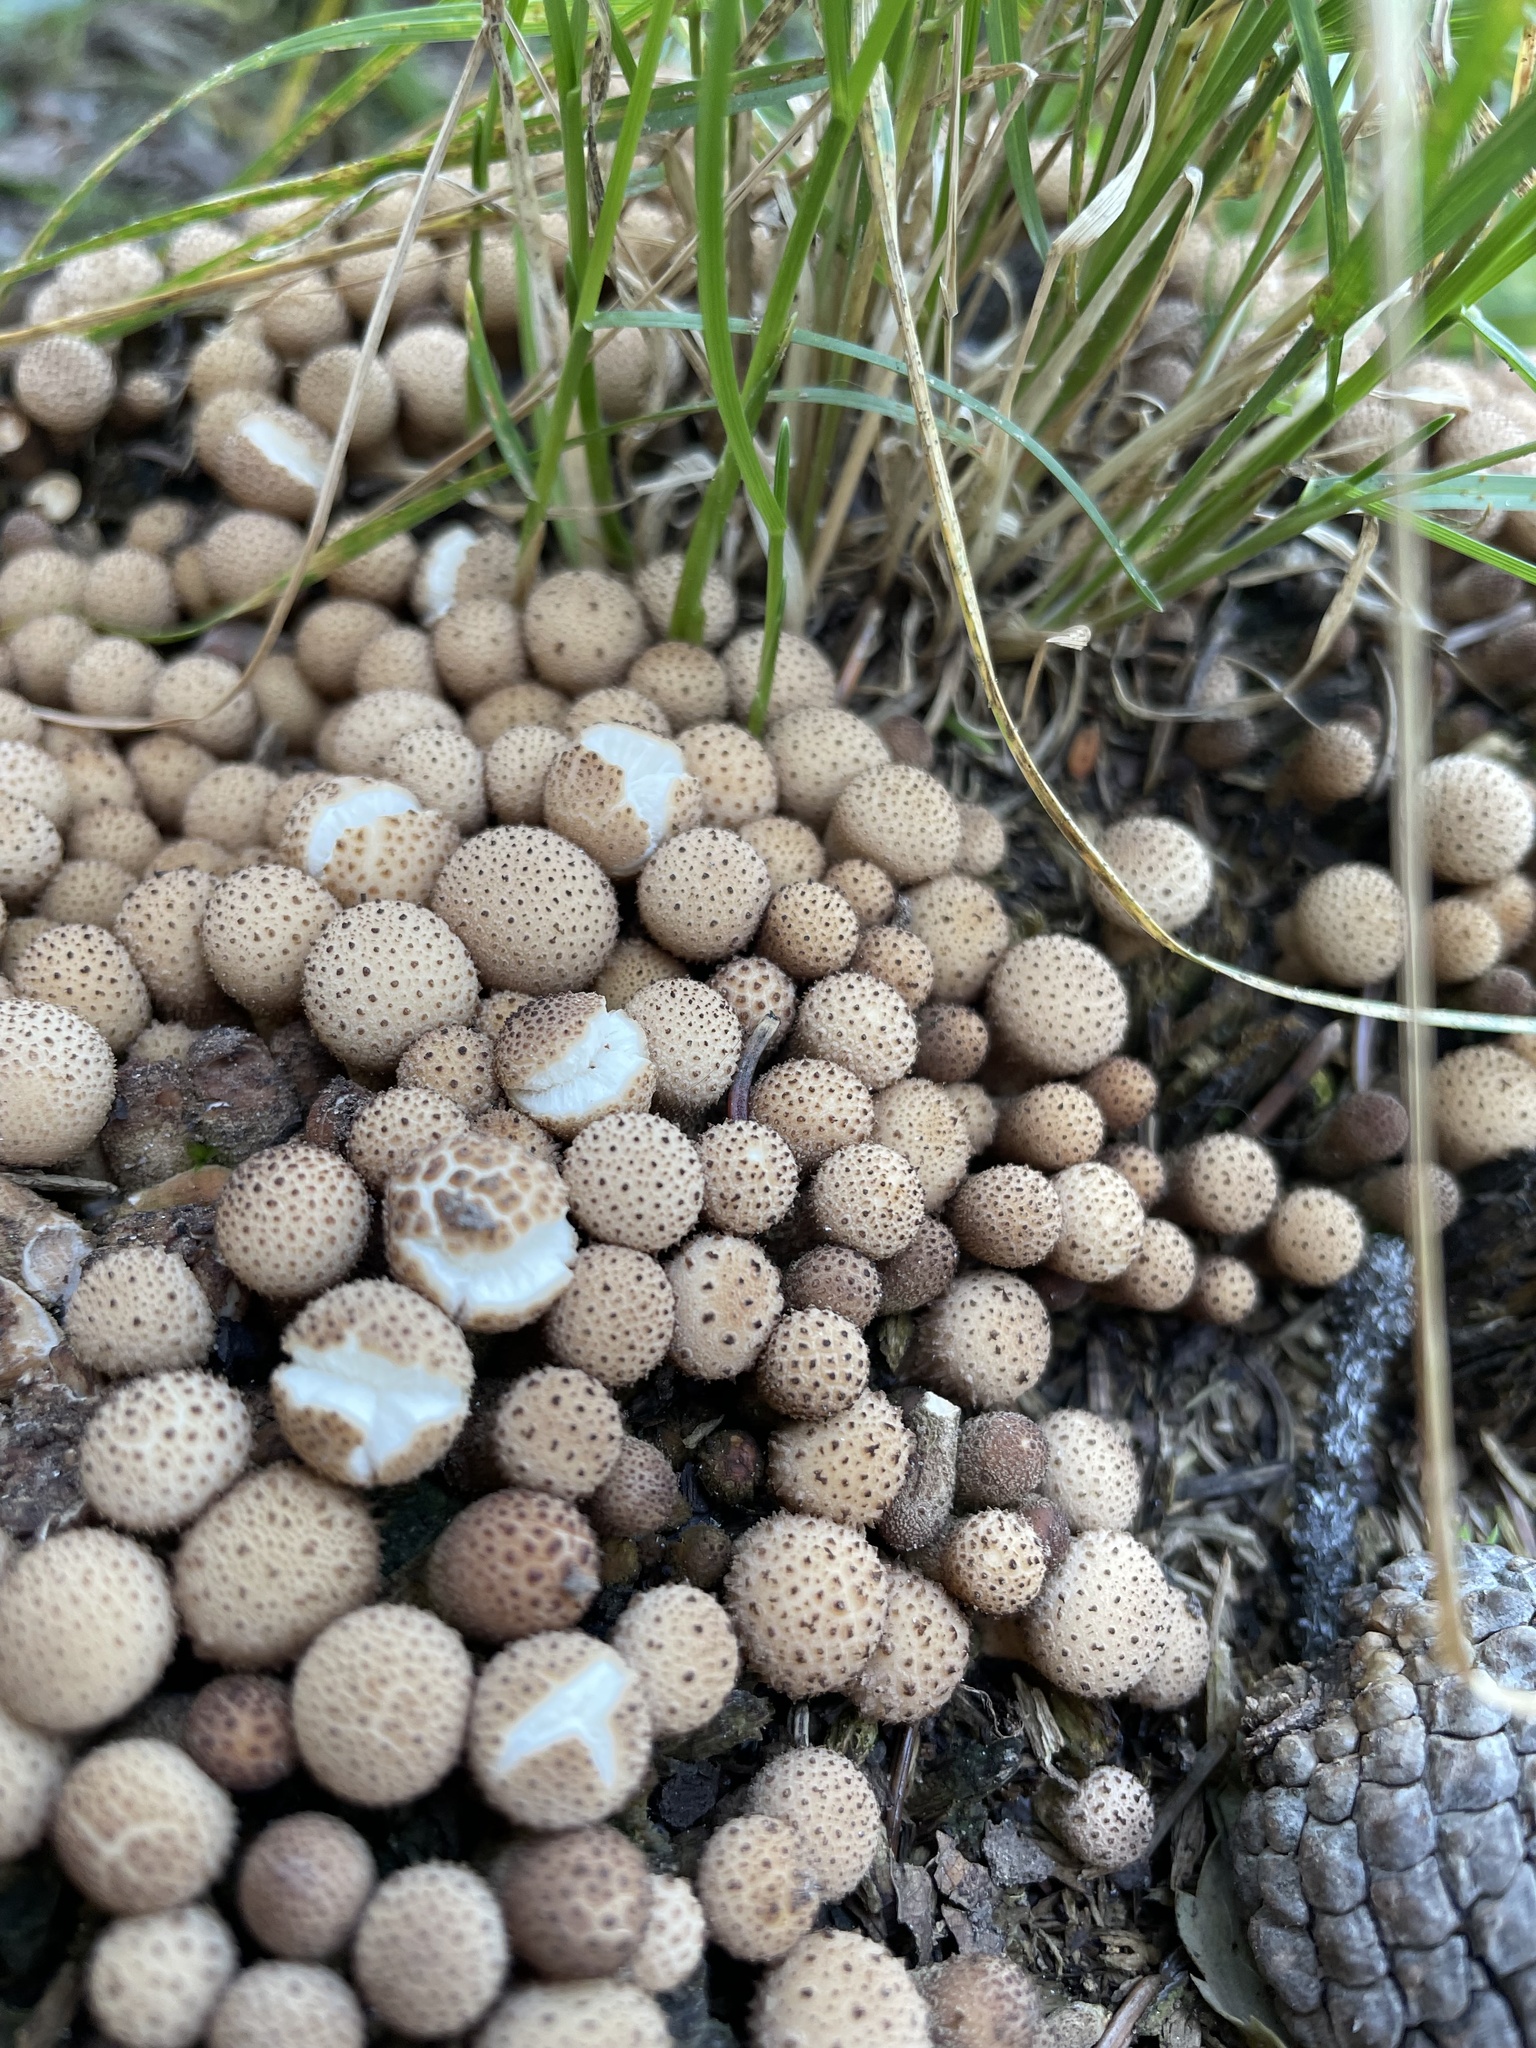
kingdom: Fungi
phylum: Basidiomycota
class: Agaricomycetes
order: Agaricales
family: Lycoperdaceae
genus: Apioperdon
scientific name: Apioperdon pyriforme
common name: Pear-shaped puffball
